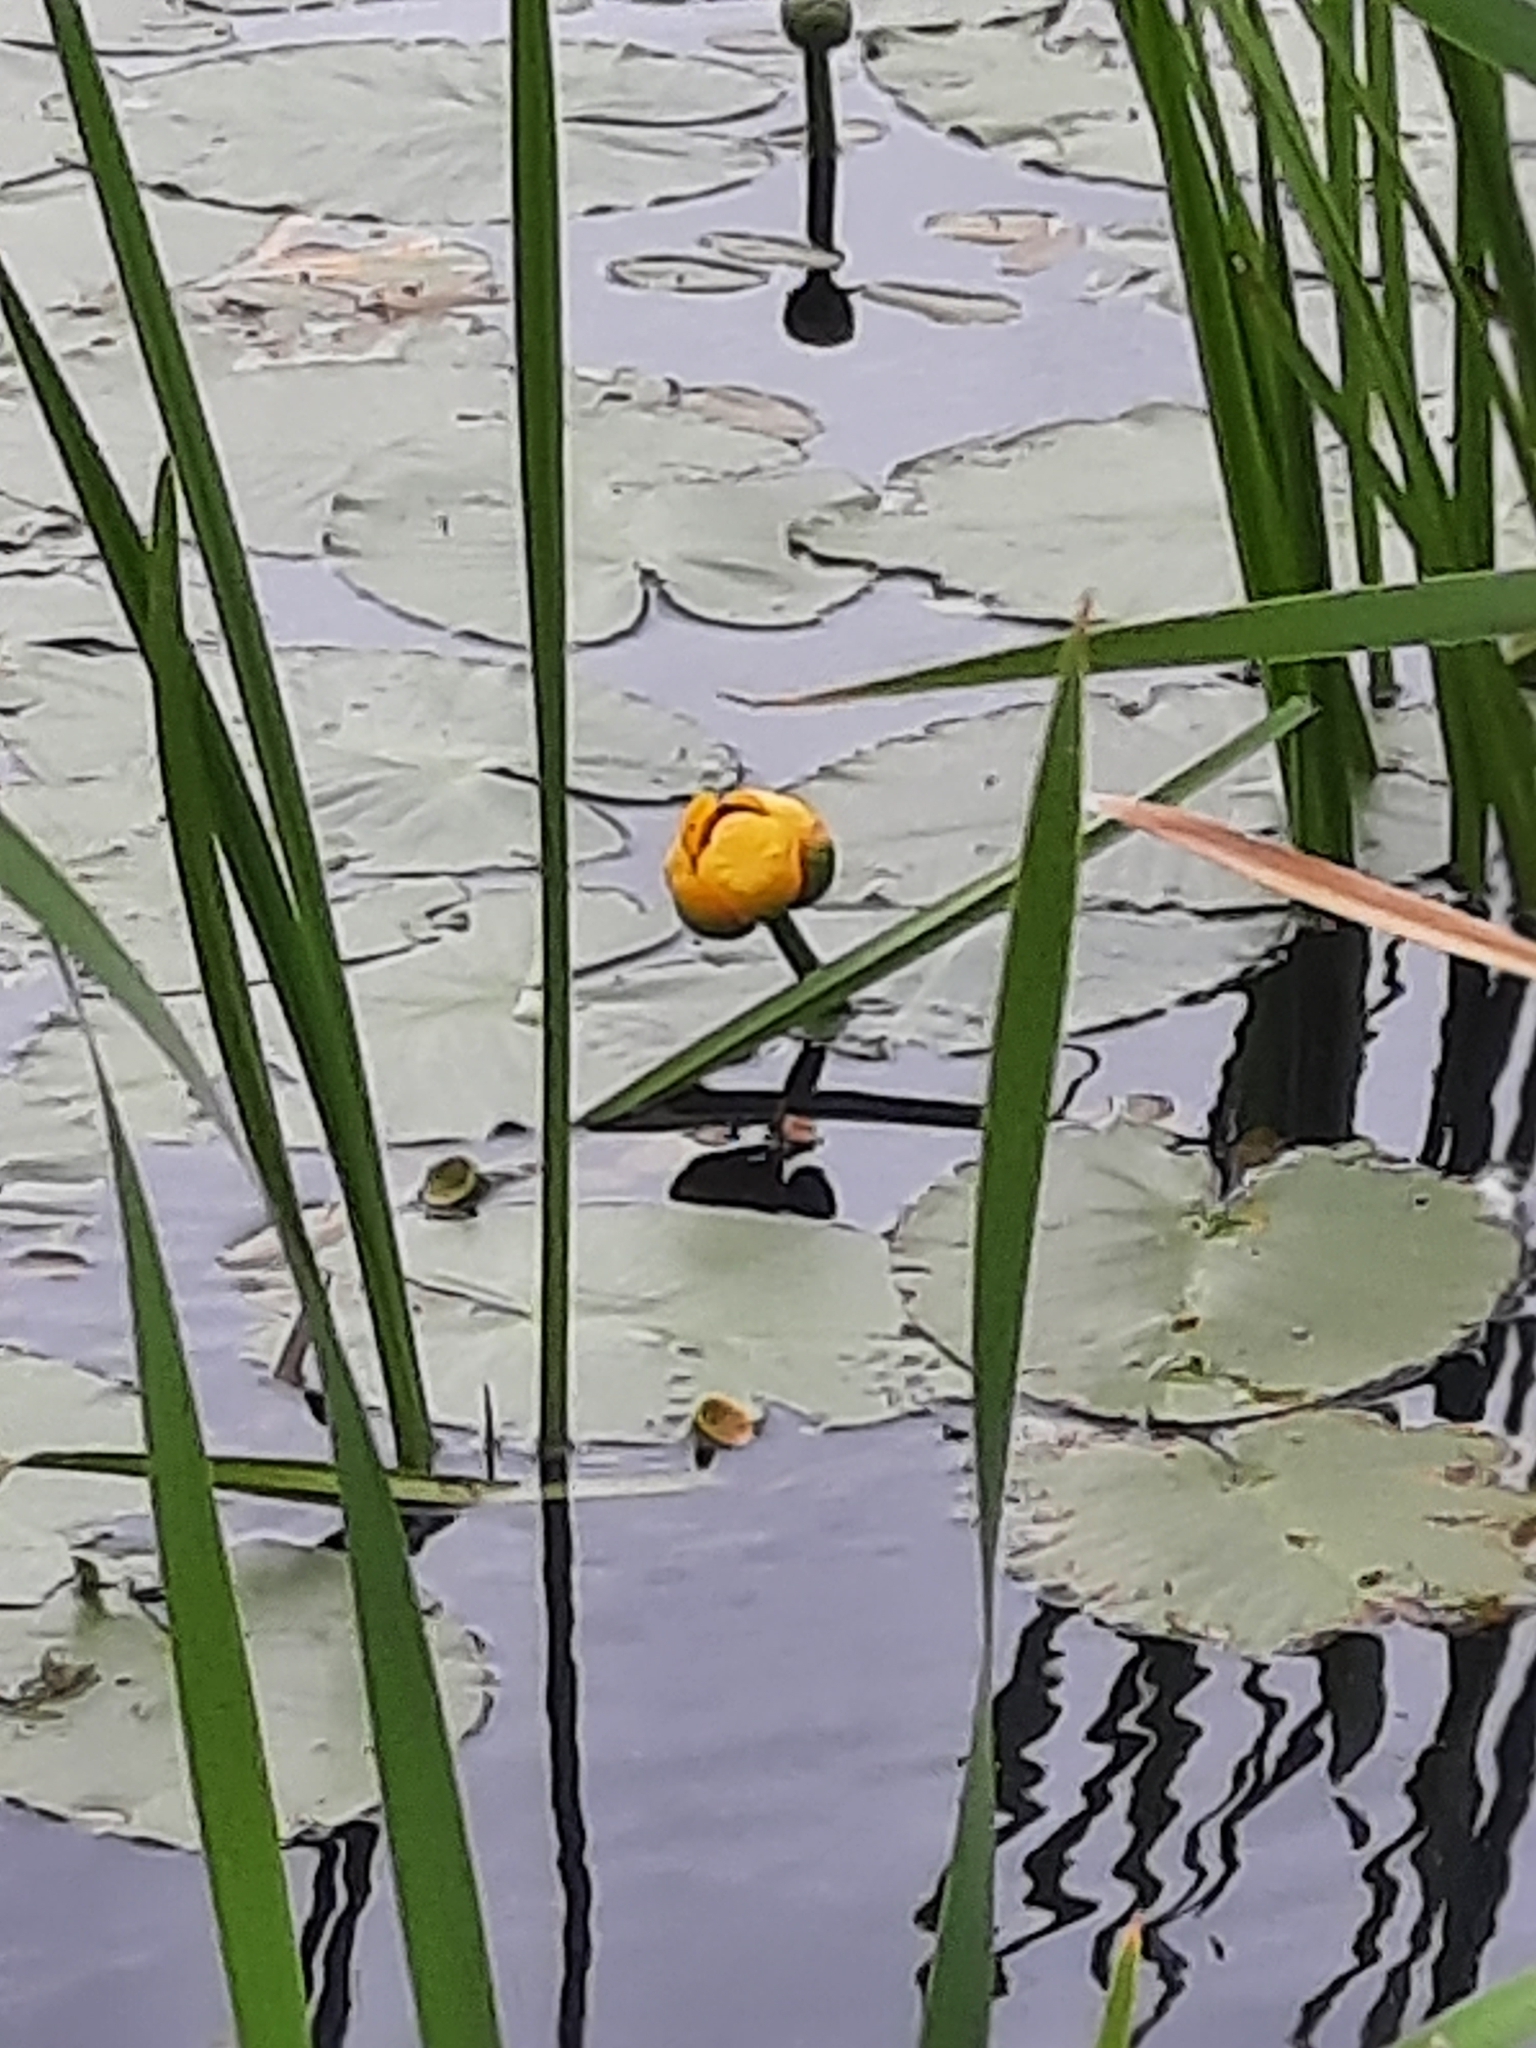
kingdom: Plantae
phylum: Tracheophyta
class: Magnoliopsida
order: Nymphaeales
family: Nymphaeaceae
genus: Nuphar
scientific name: Nuphar variegata
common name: Beaver-root
